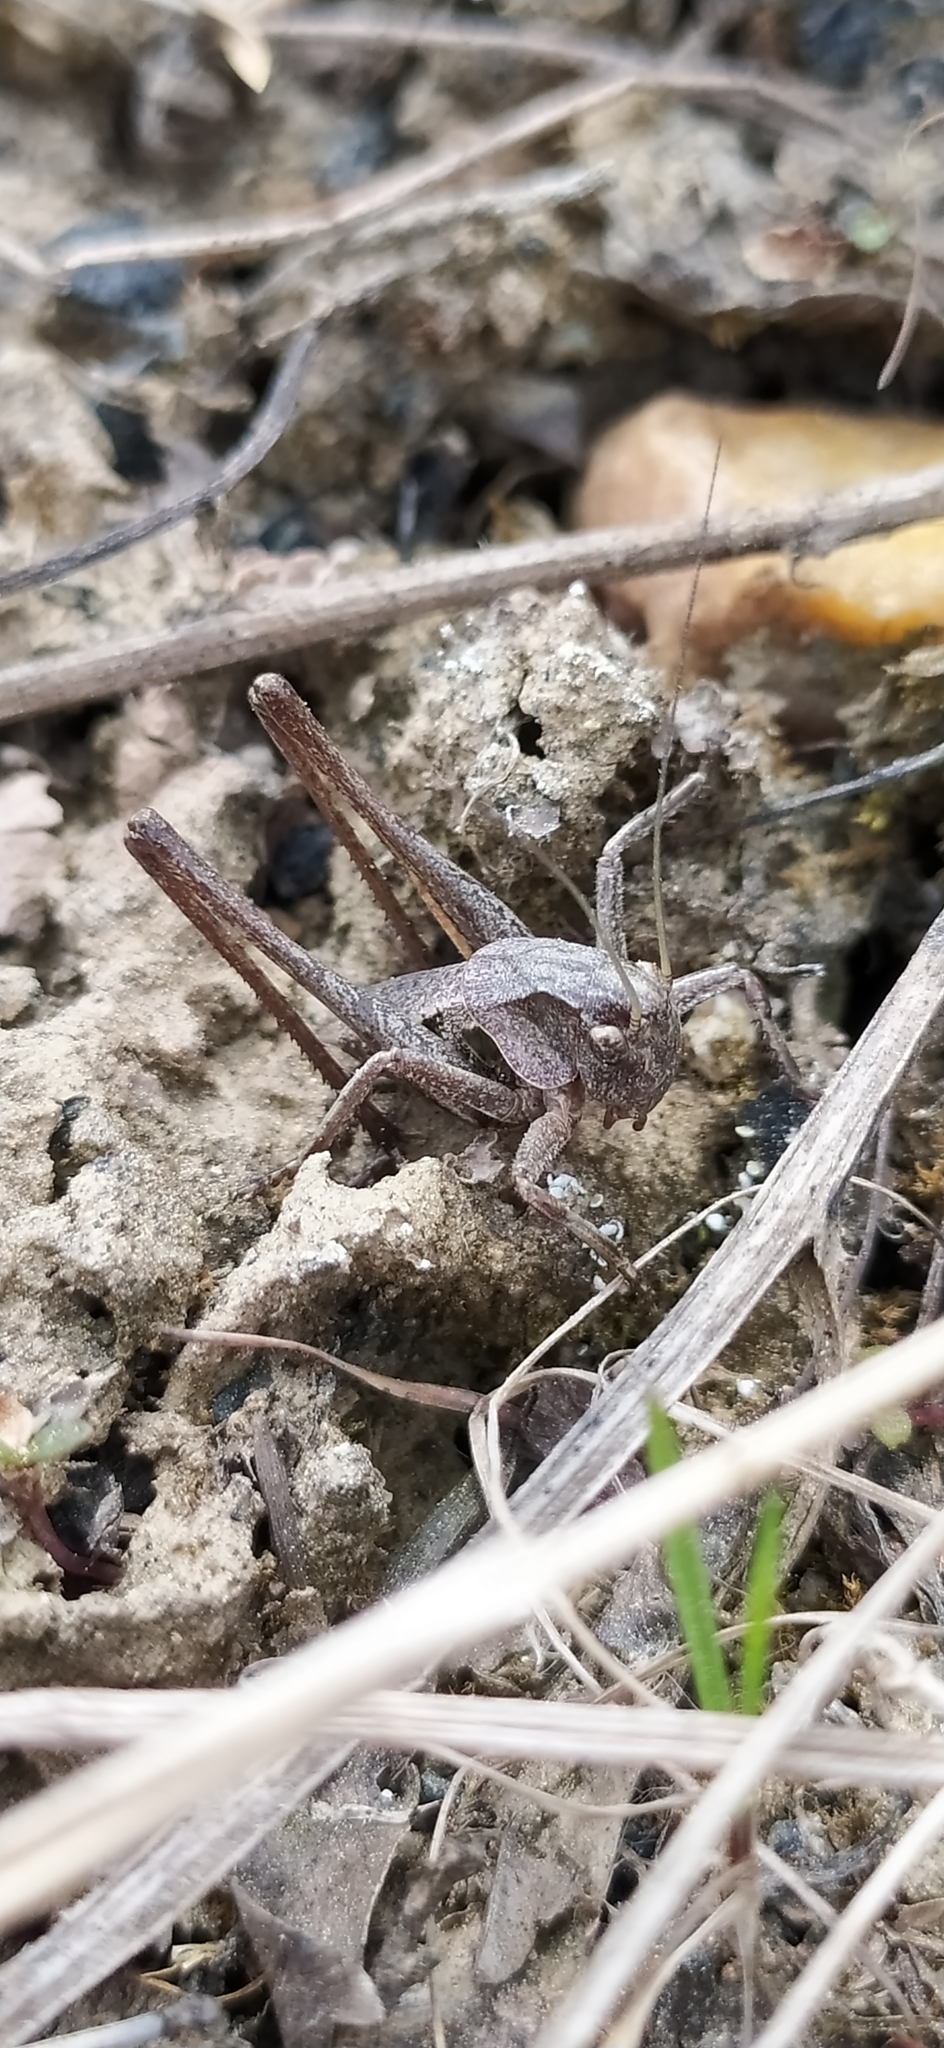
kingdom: Animalia
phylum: Arthropoda
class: Insecta
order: Orthoptera
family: Tettigoniidae
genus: Decticus
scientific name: Decticus verrucivorus
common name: Wart-biter
